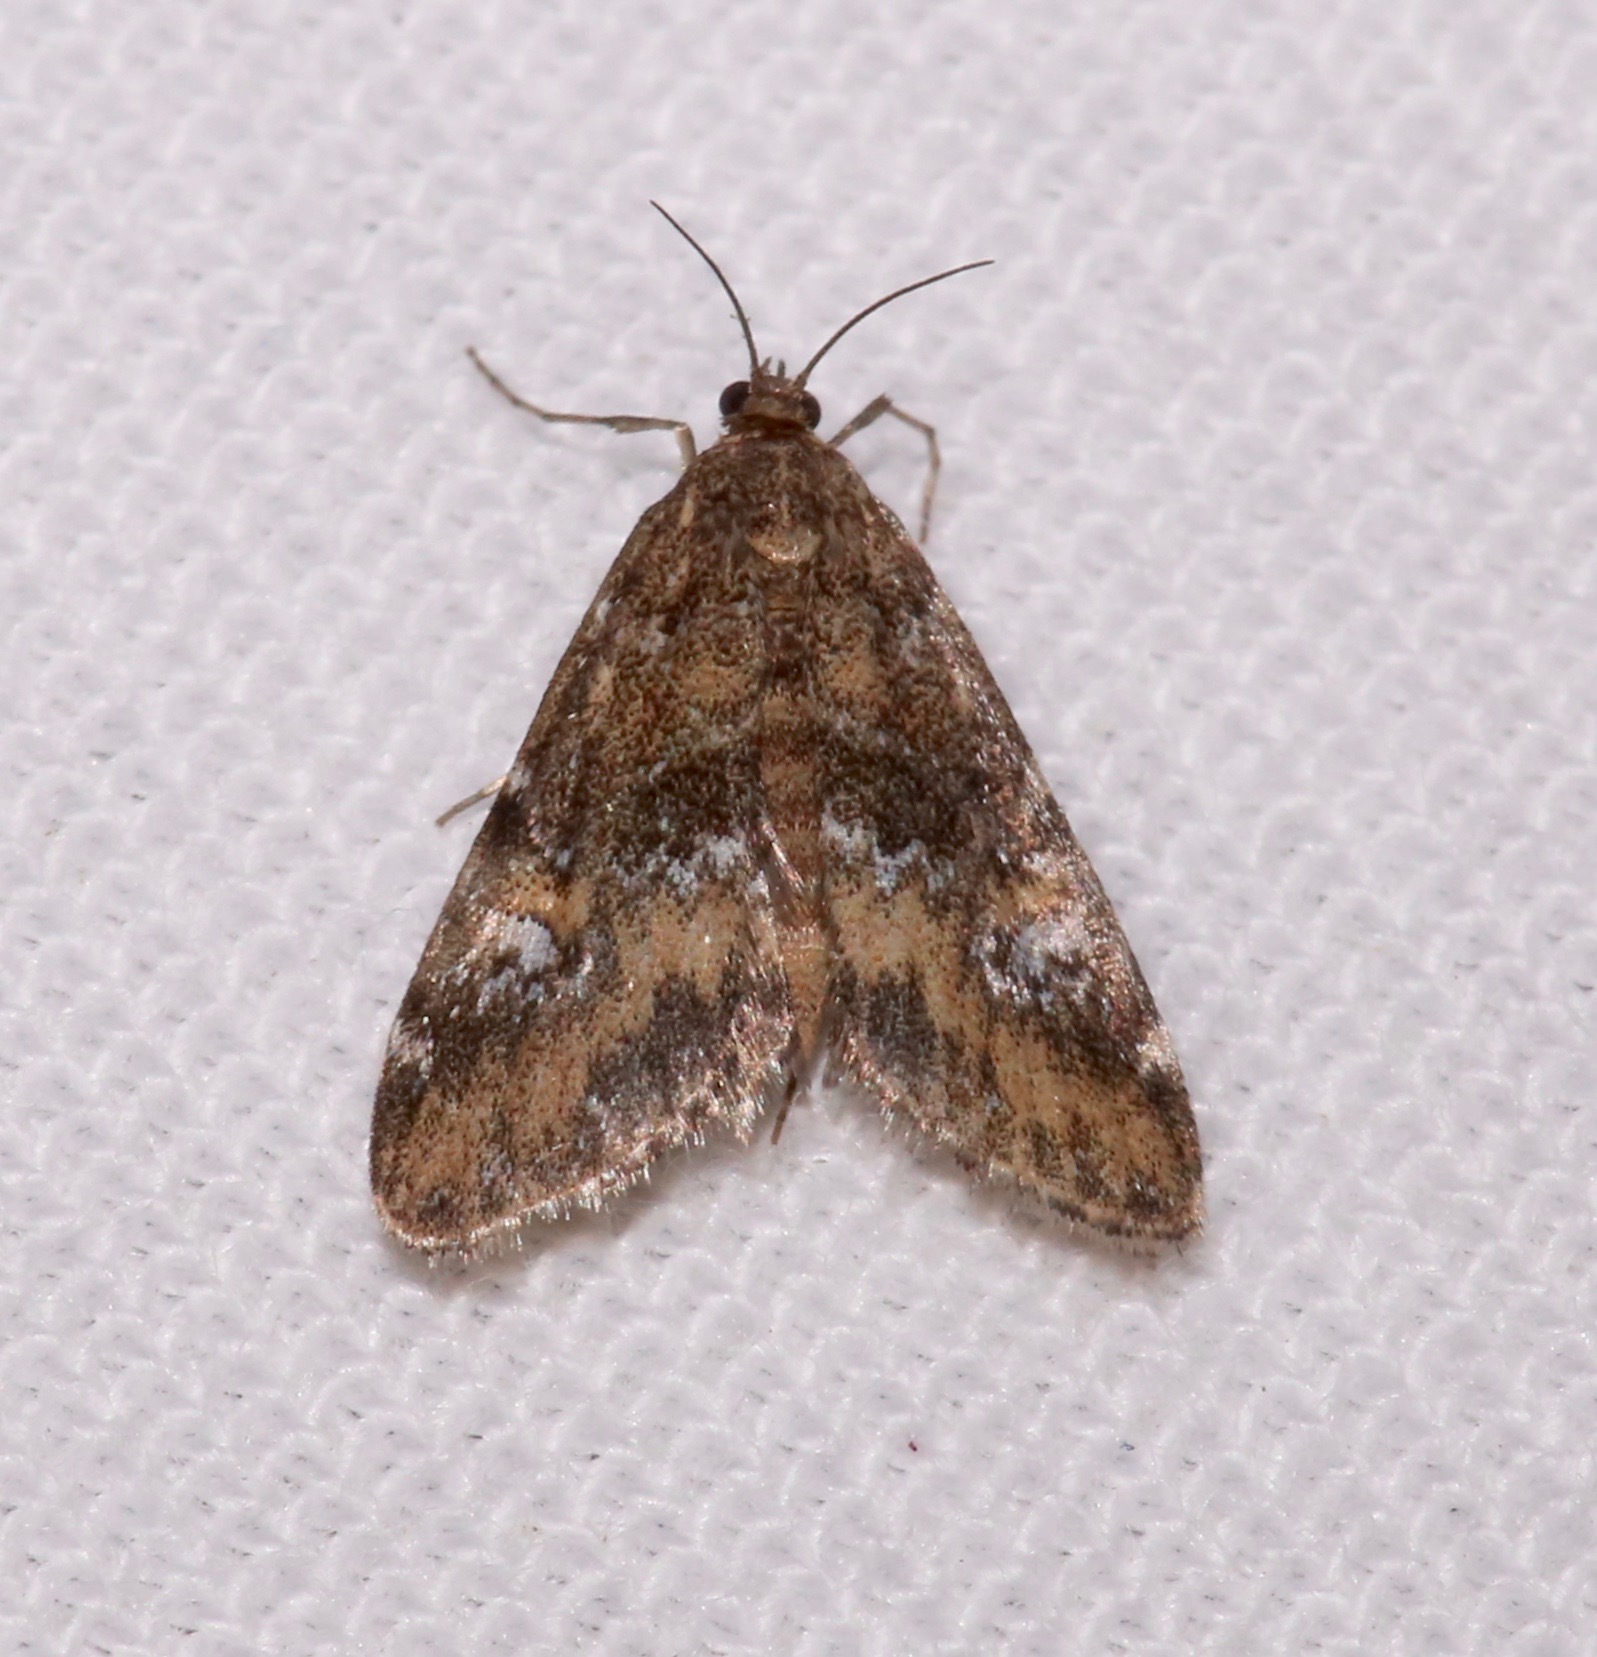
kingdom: Animalia
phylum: Arthropoda
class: Insecta
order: Lepidoptera
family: Crambidae
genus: Elophila
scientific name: Elophila obliteralis
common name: Waterlily leafcutter moth
